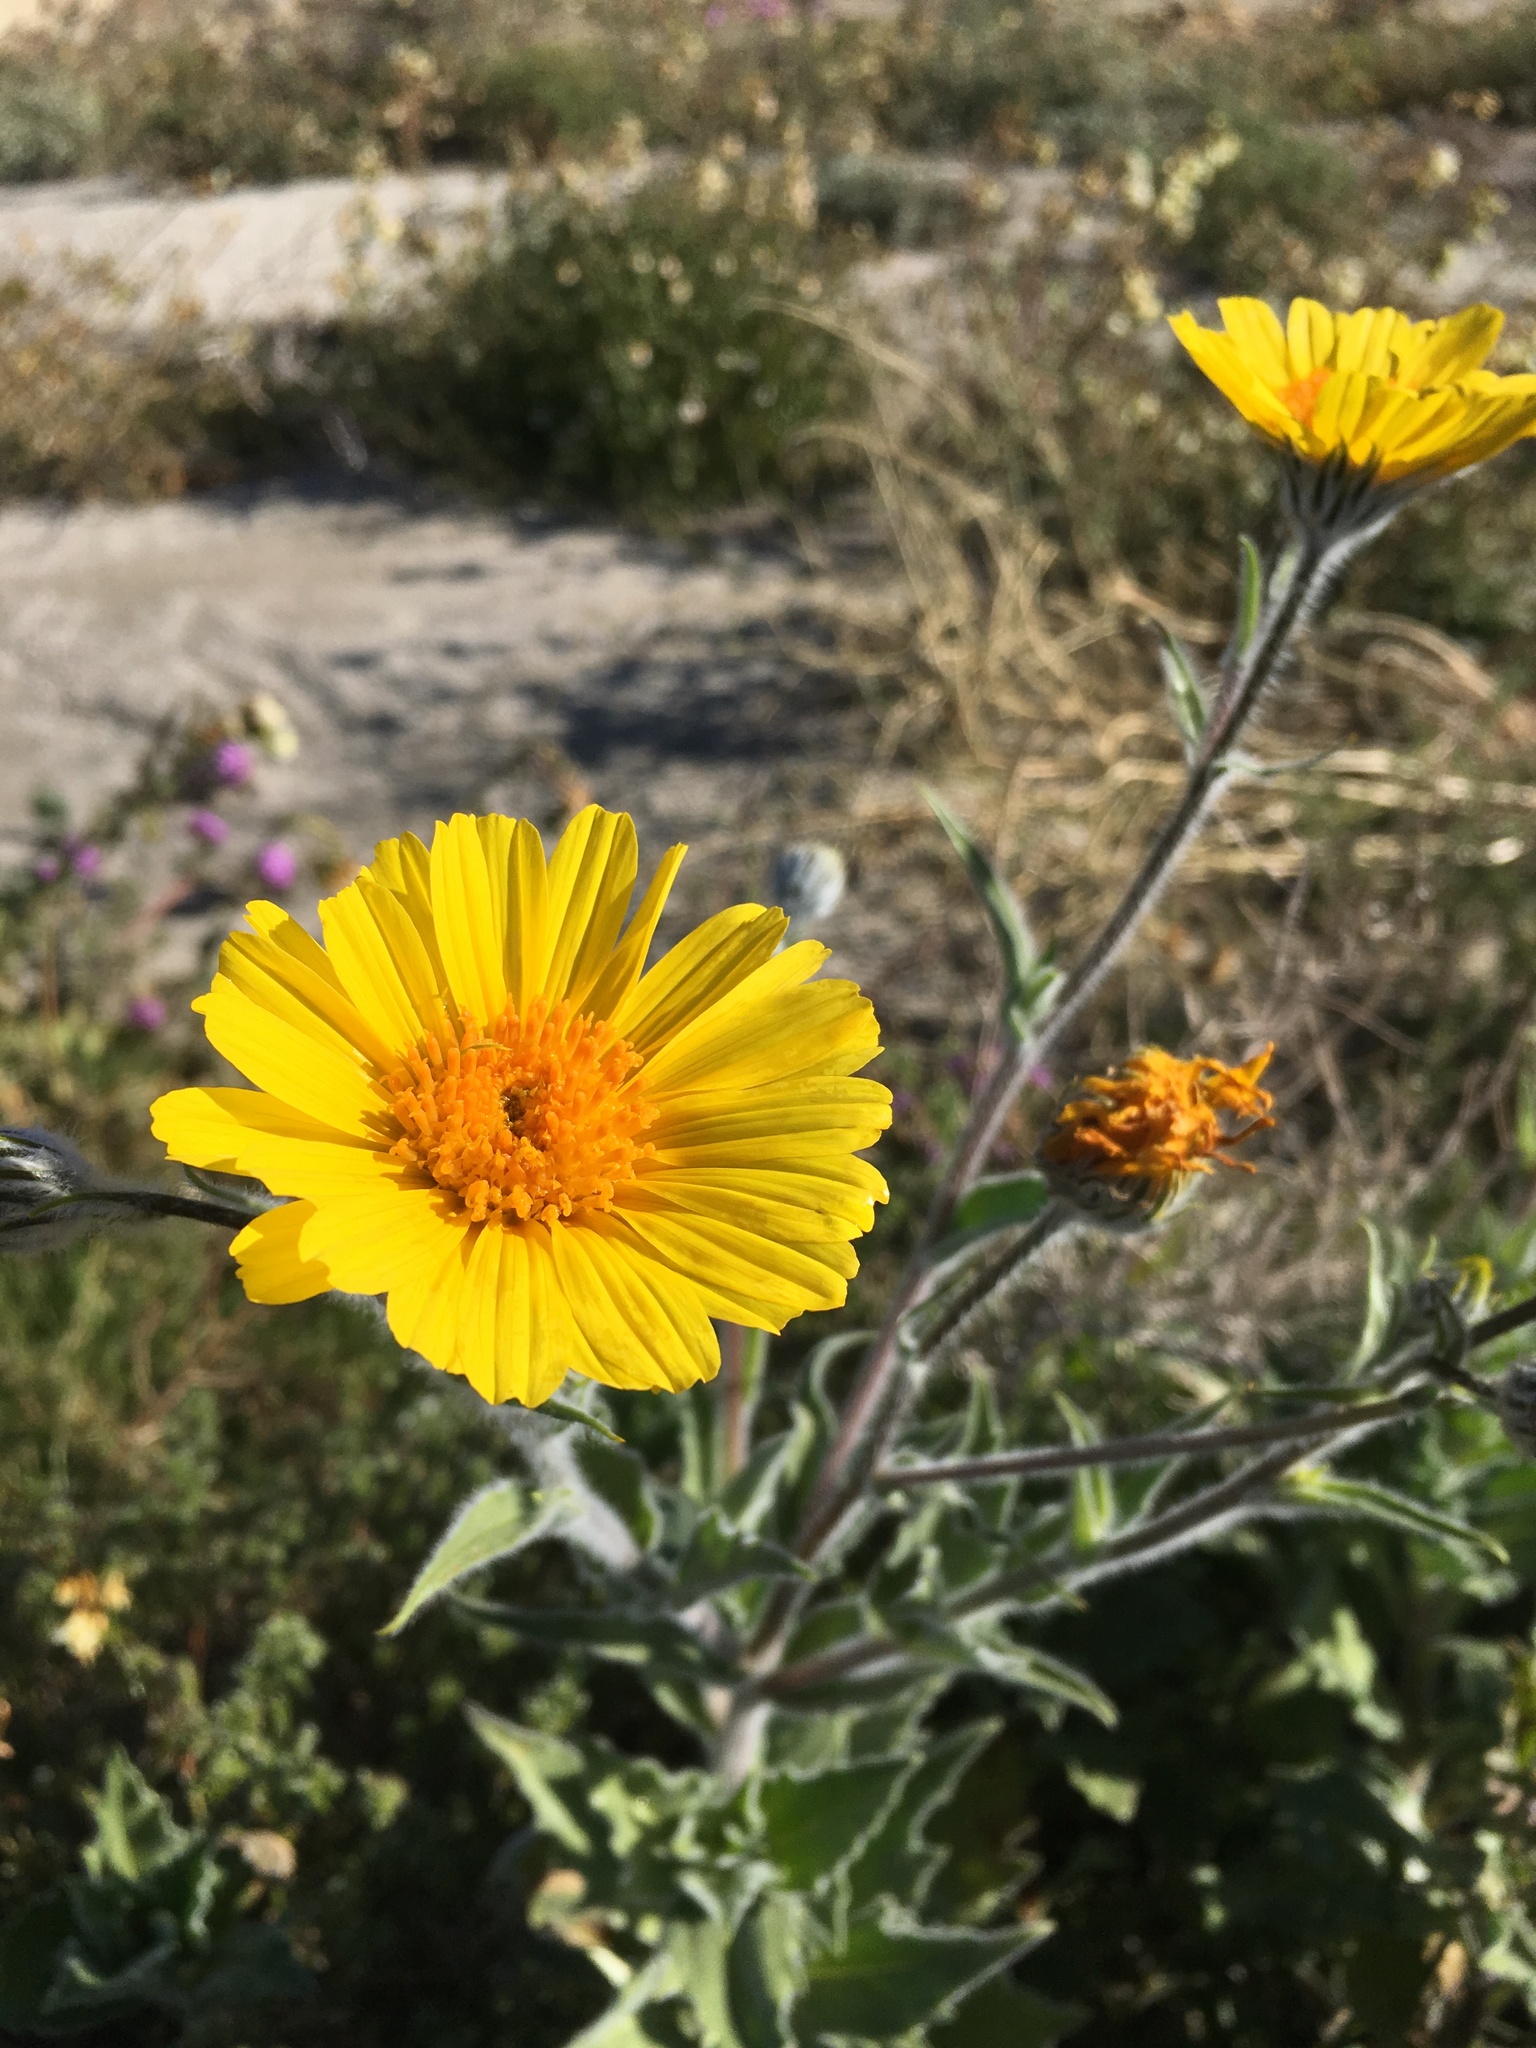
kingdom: Plantae
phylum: Tracheophyta
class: Magnoliopsida
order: Asterales
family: Asteraceae
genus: Geraea
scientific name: Geraea canescens
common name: Desert-gold
